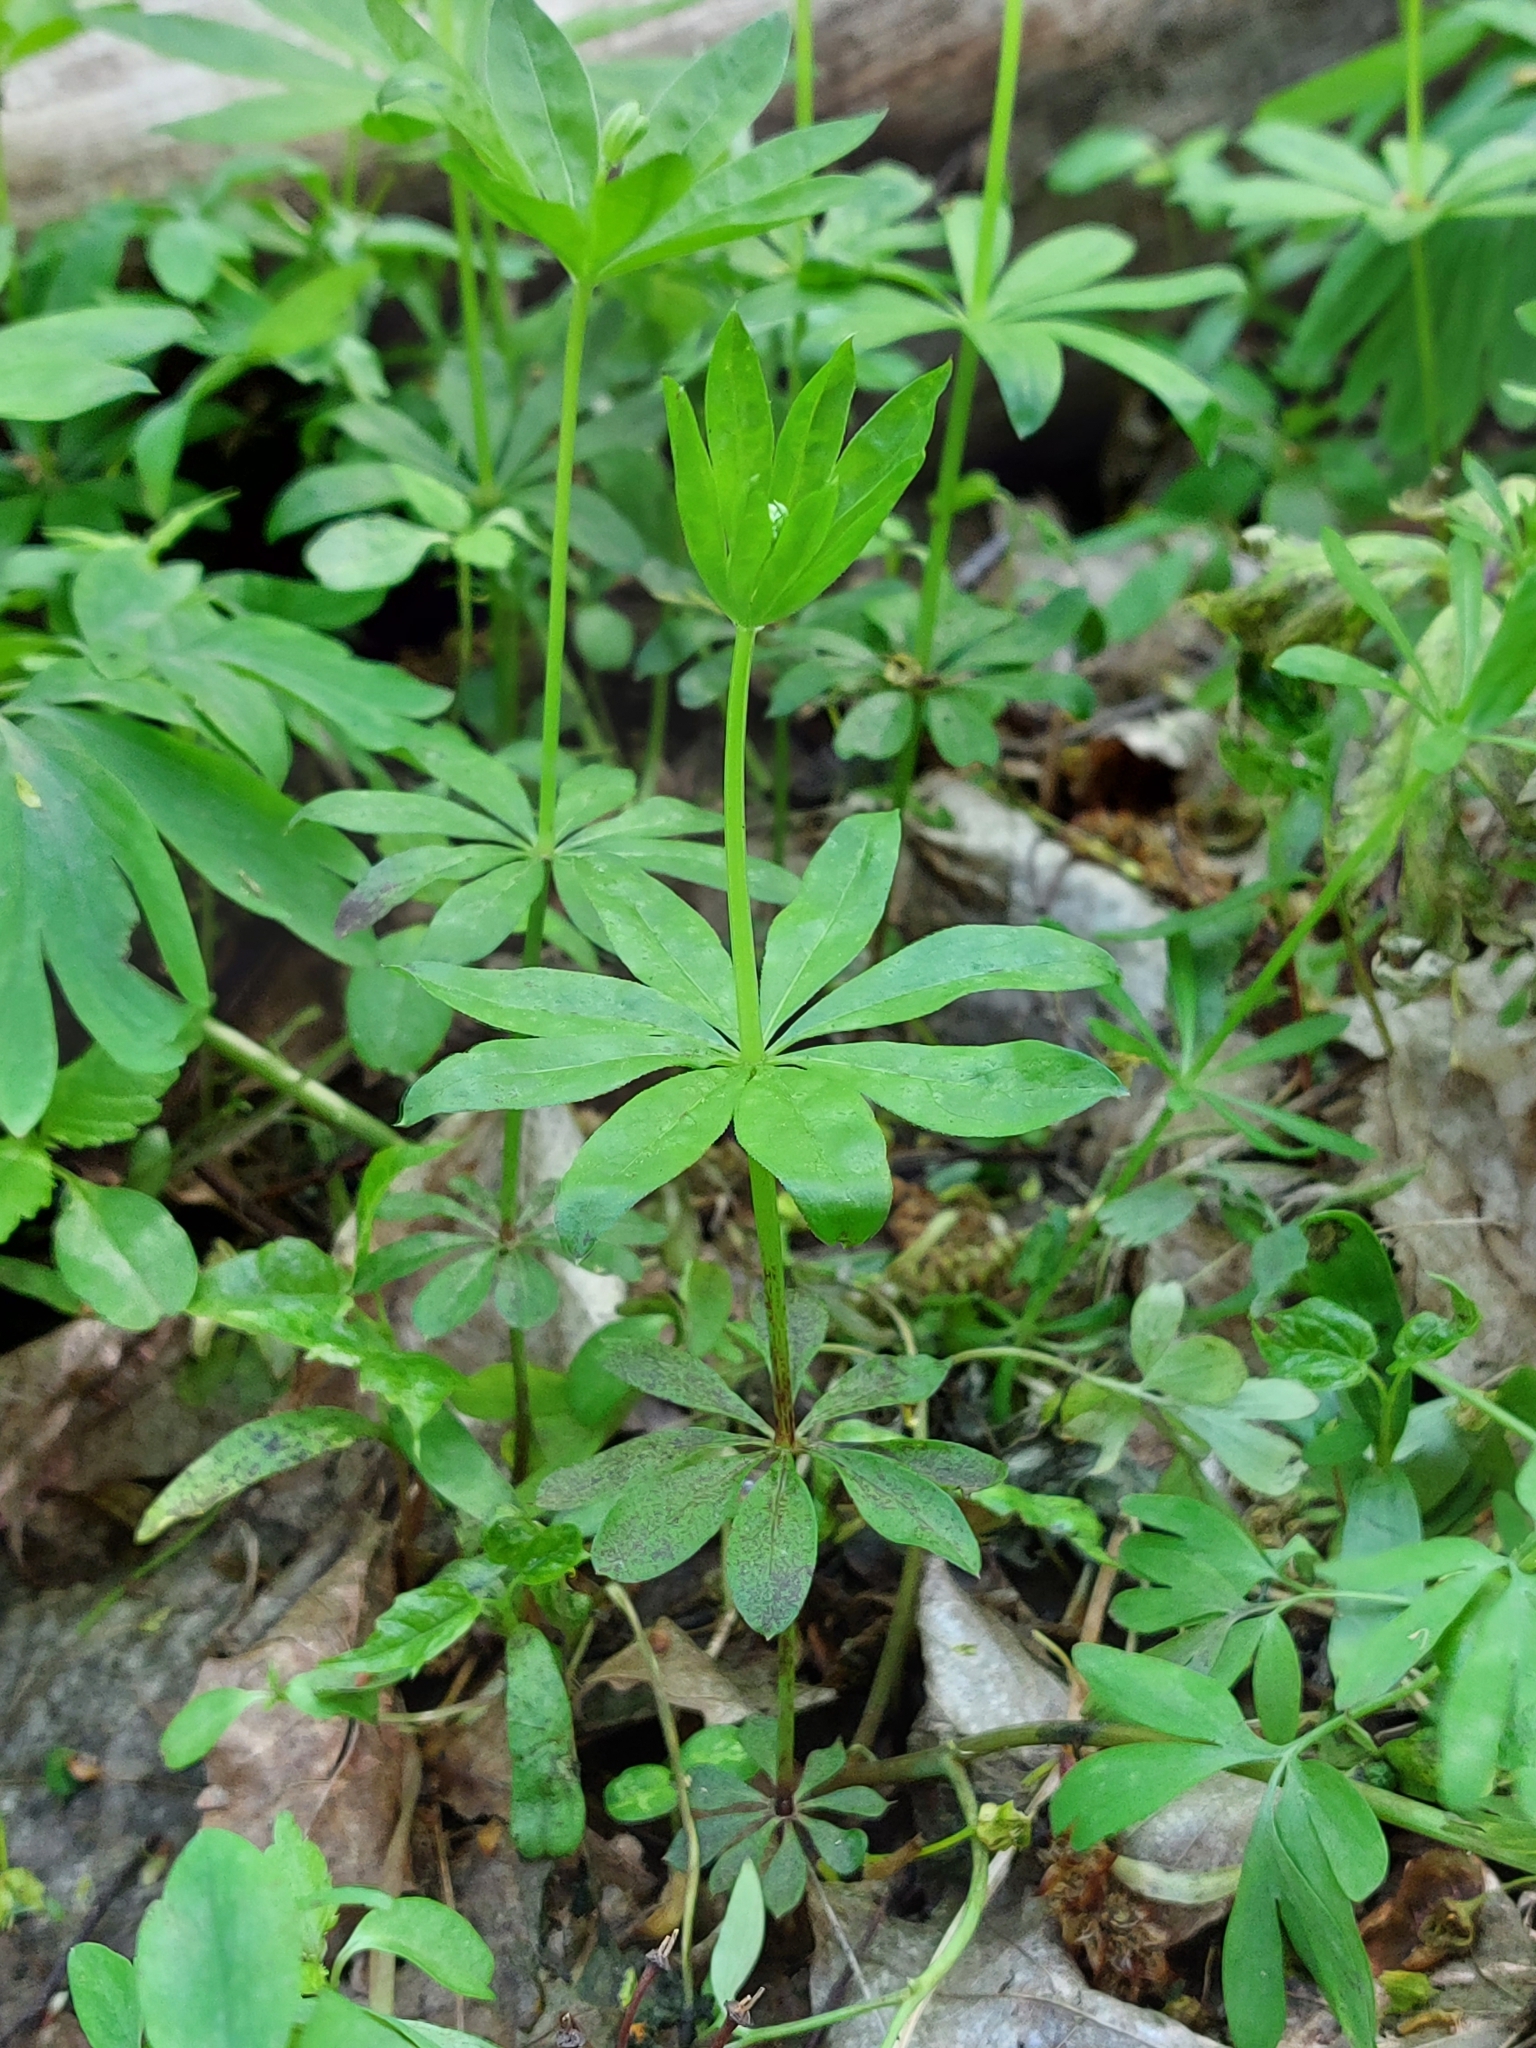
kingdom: Plantae
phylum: Tracheophyta
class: Magnoliopsida
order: Gentianales
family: Rubiaceae
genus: Galium
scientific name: Galium odoratum
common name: Sweet woodruff
